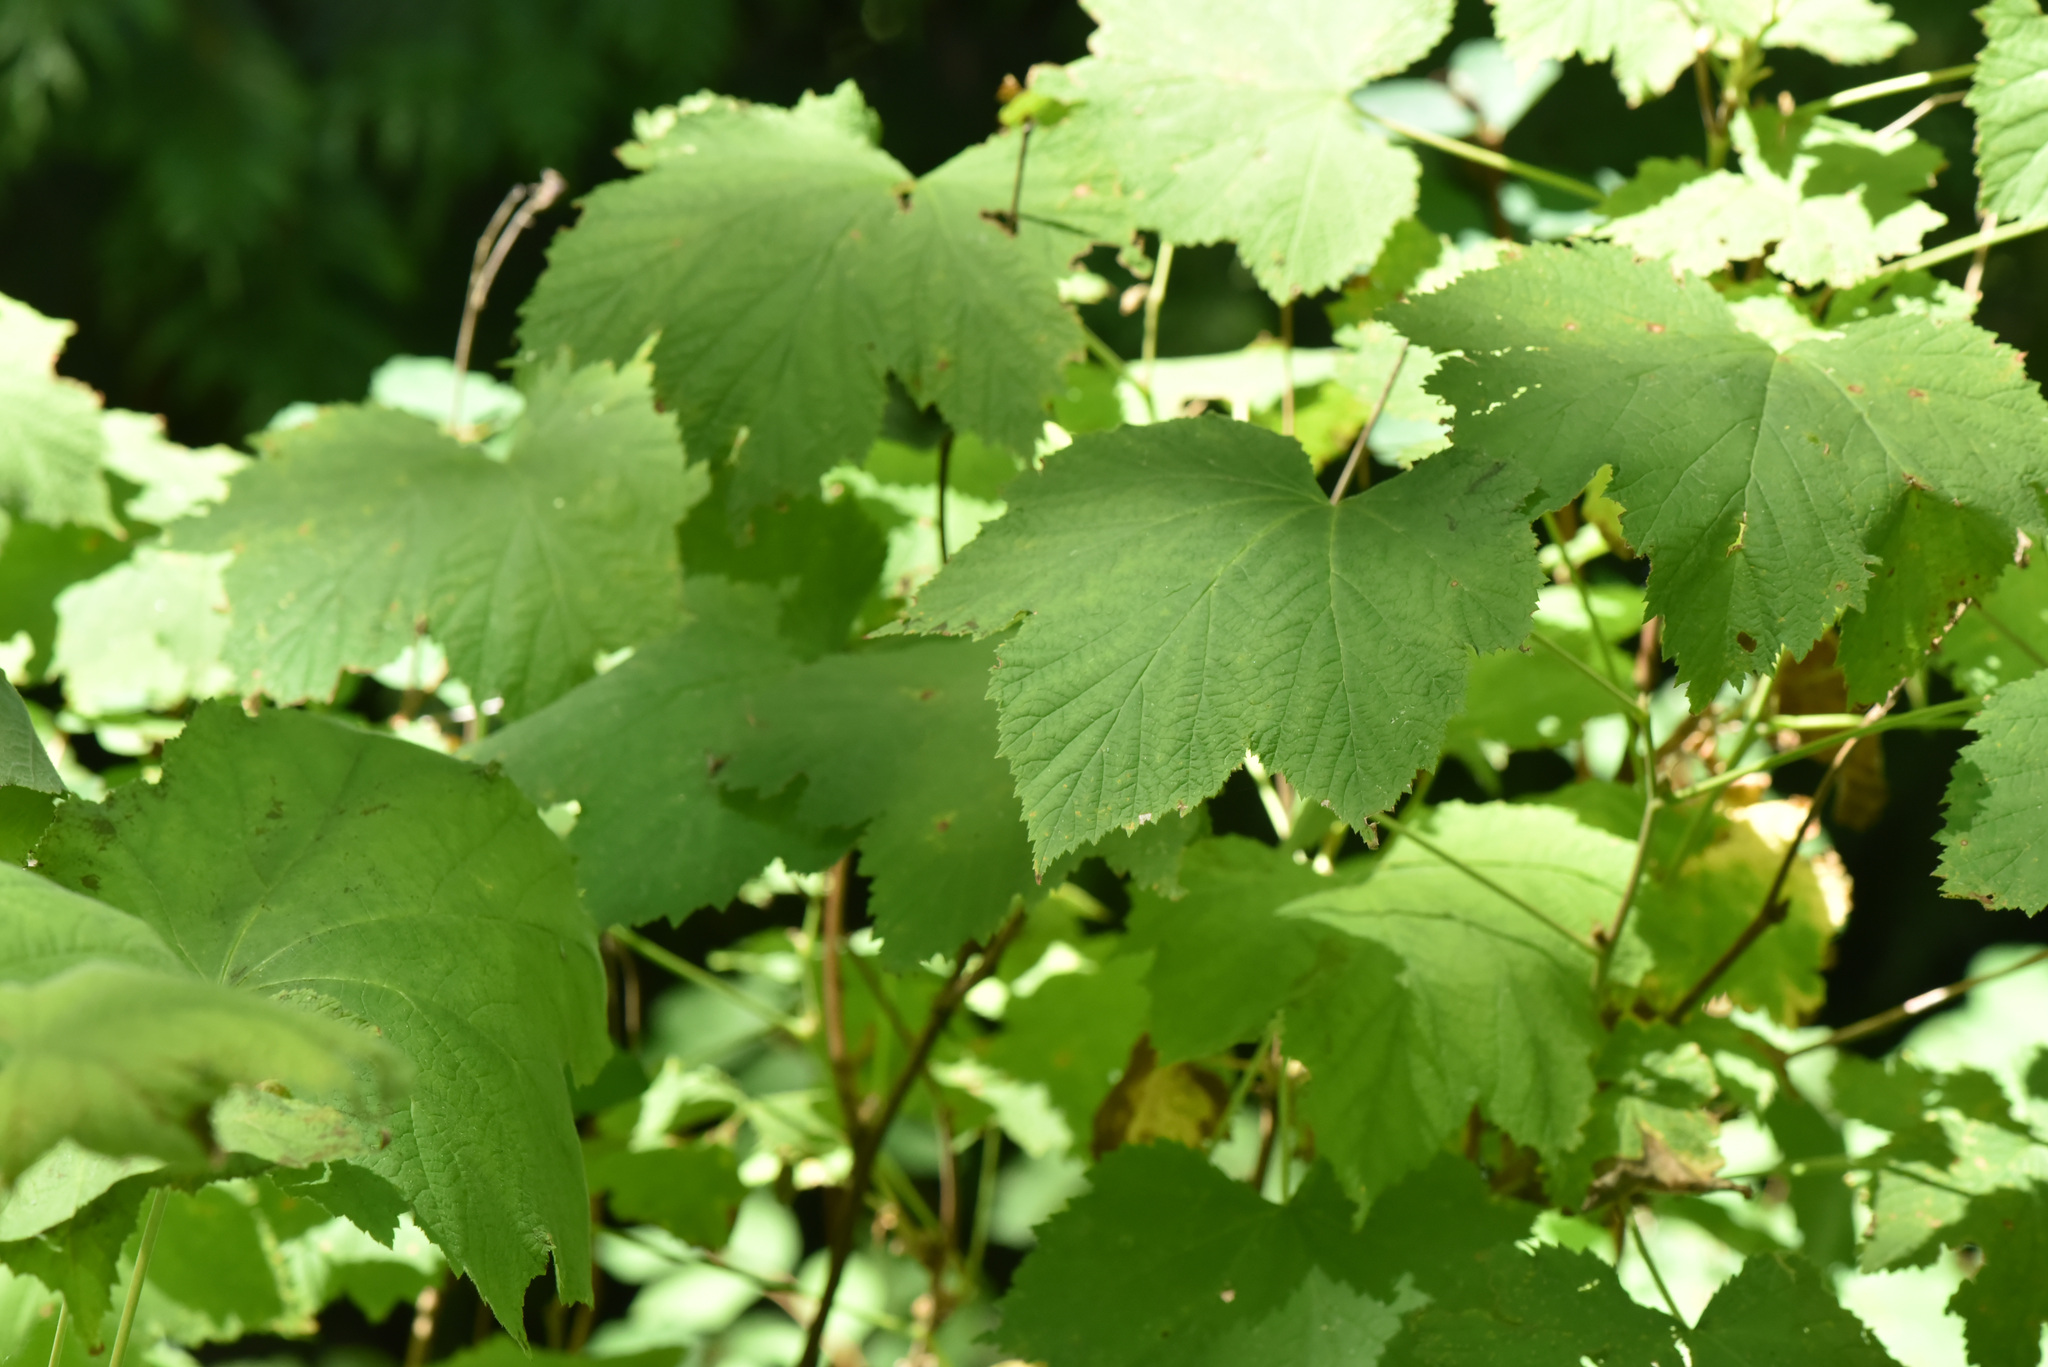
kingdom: Plantae
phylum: Tracheophyta
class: Magnoliopsida
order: Rosales
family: Rosaceae
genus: Rubus
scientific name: Rubus parviflorus
